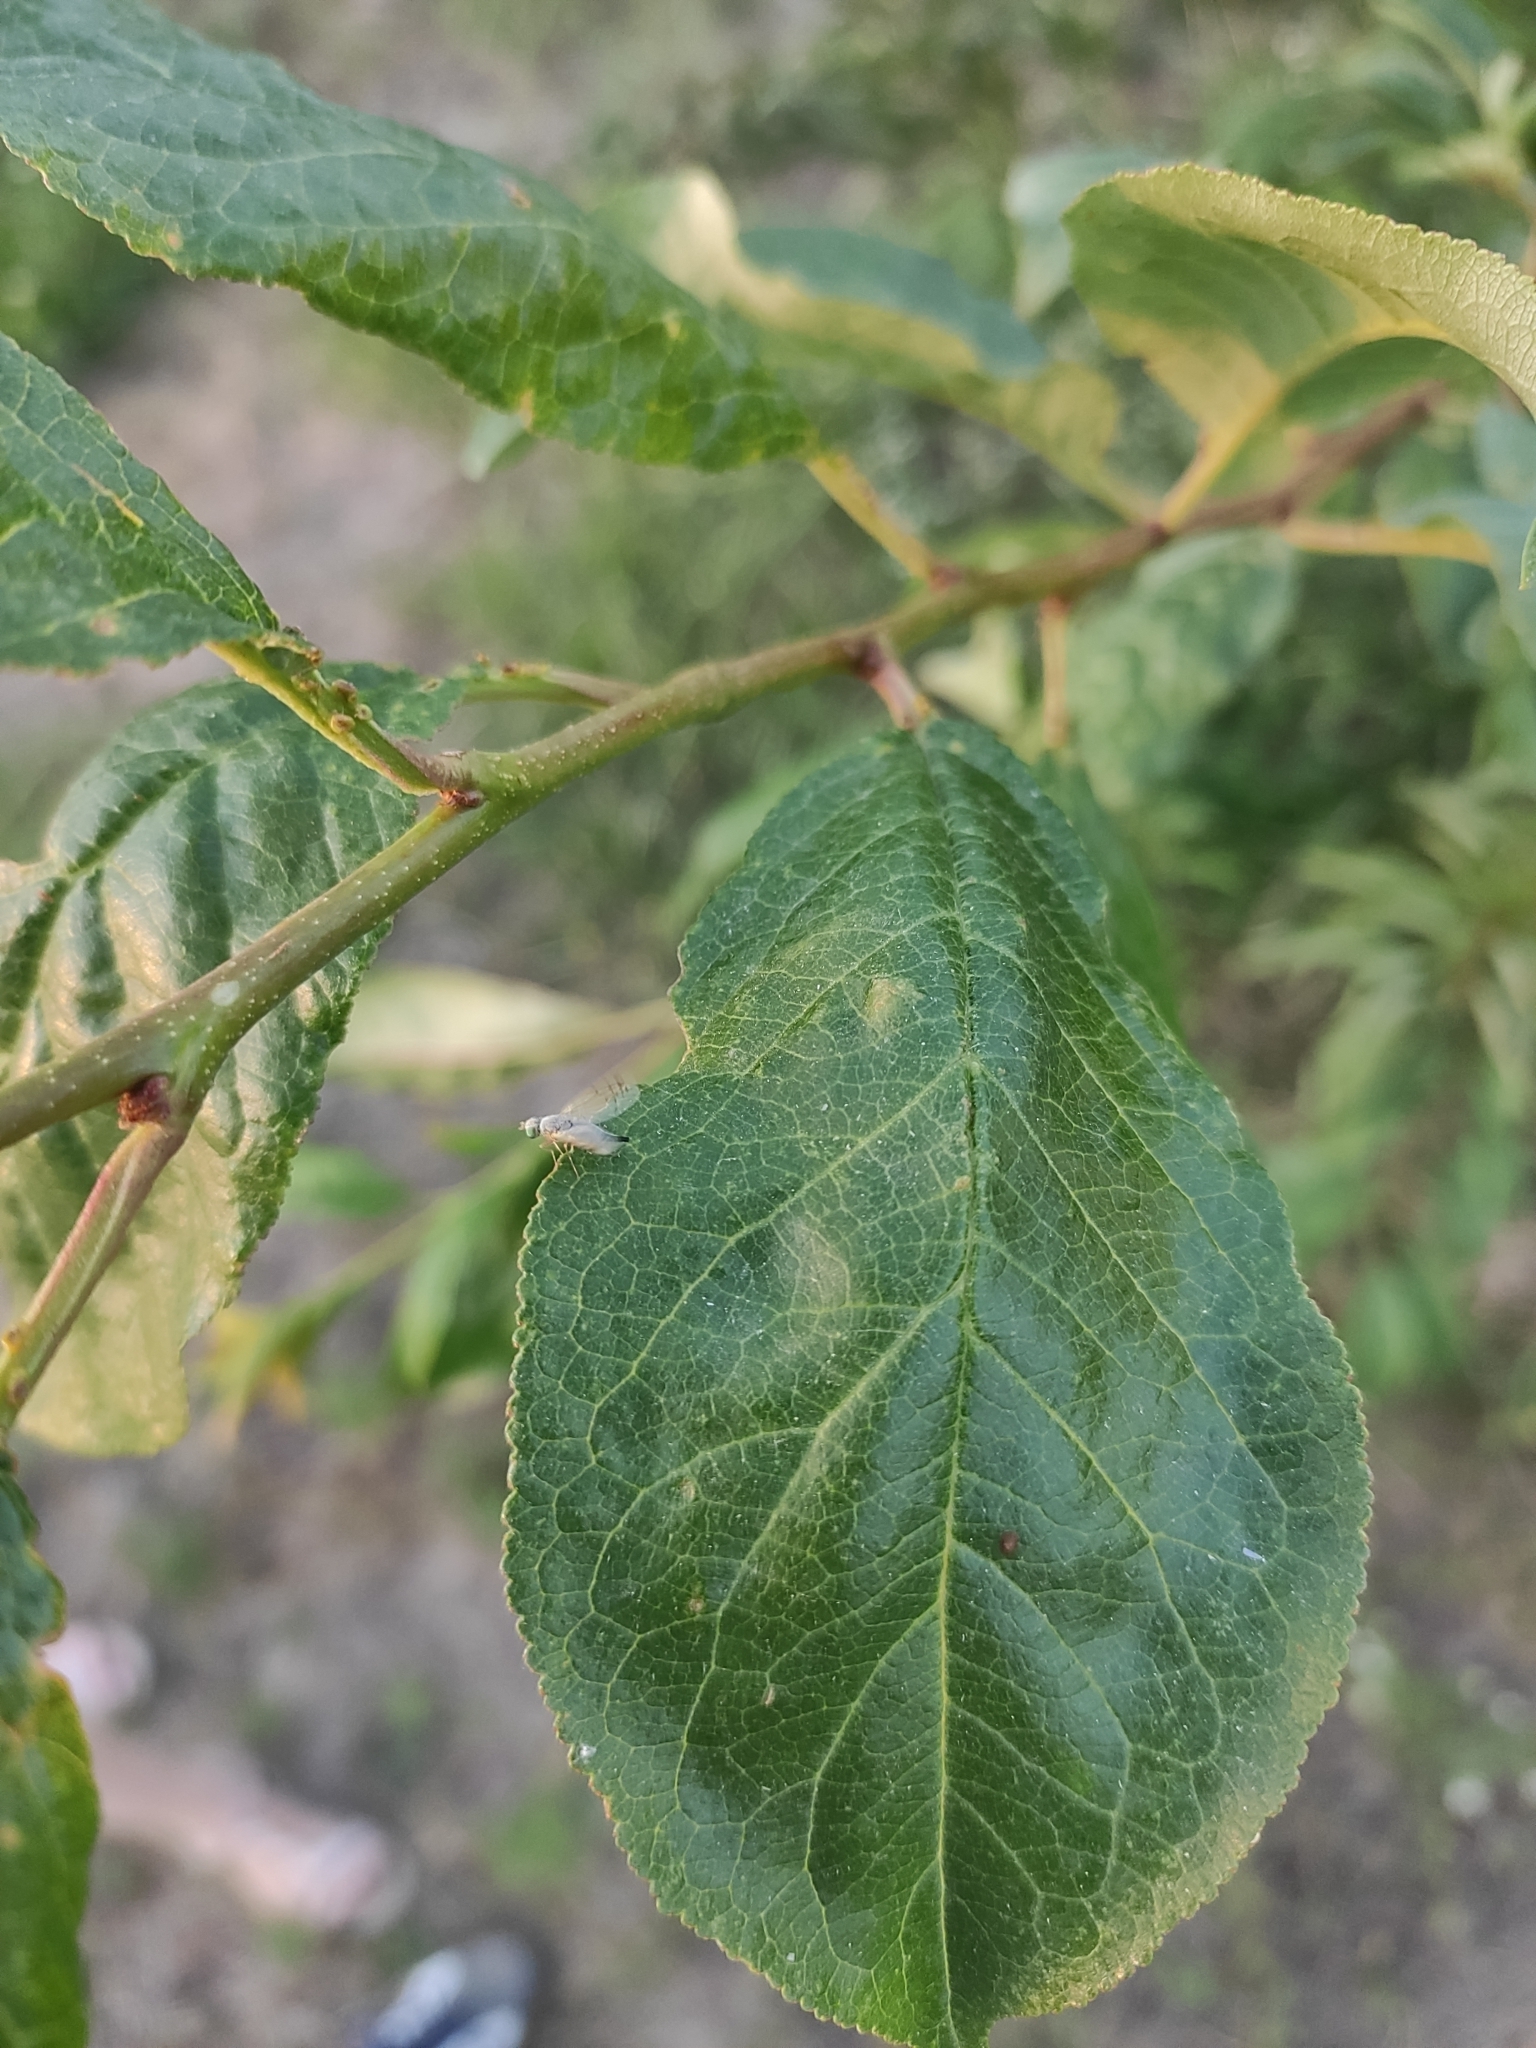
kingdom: Animalia
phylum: Arthropoda
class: Insecta
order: Diptera
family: Tephritidae
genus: Acanthiophilus
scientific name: Acanthiophilus helianthi
